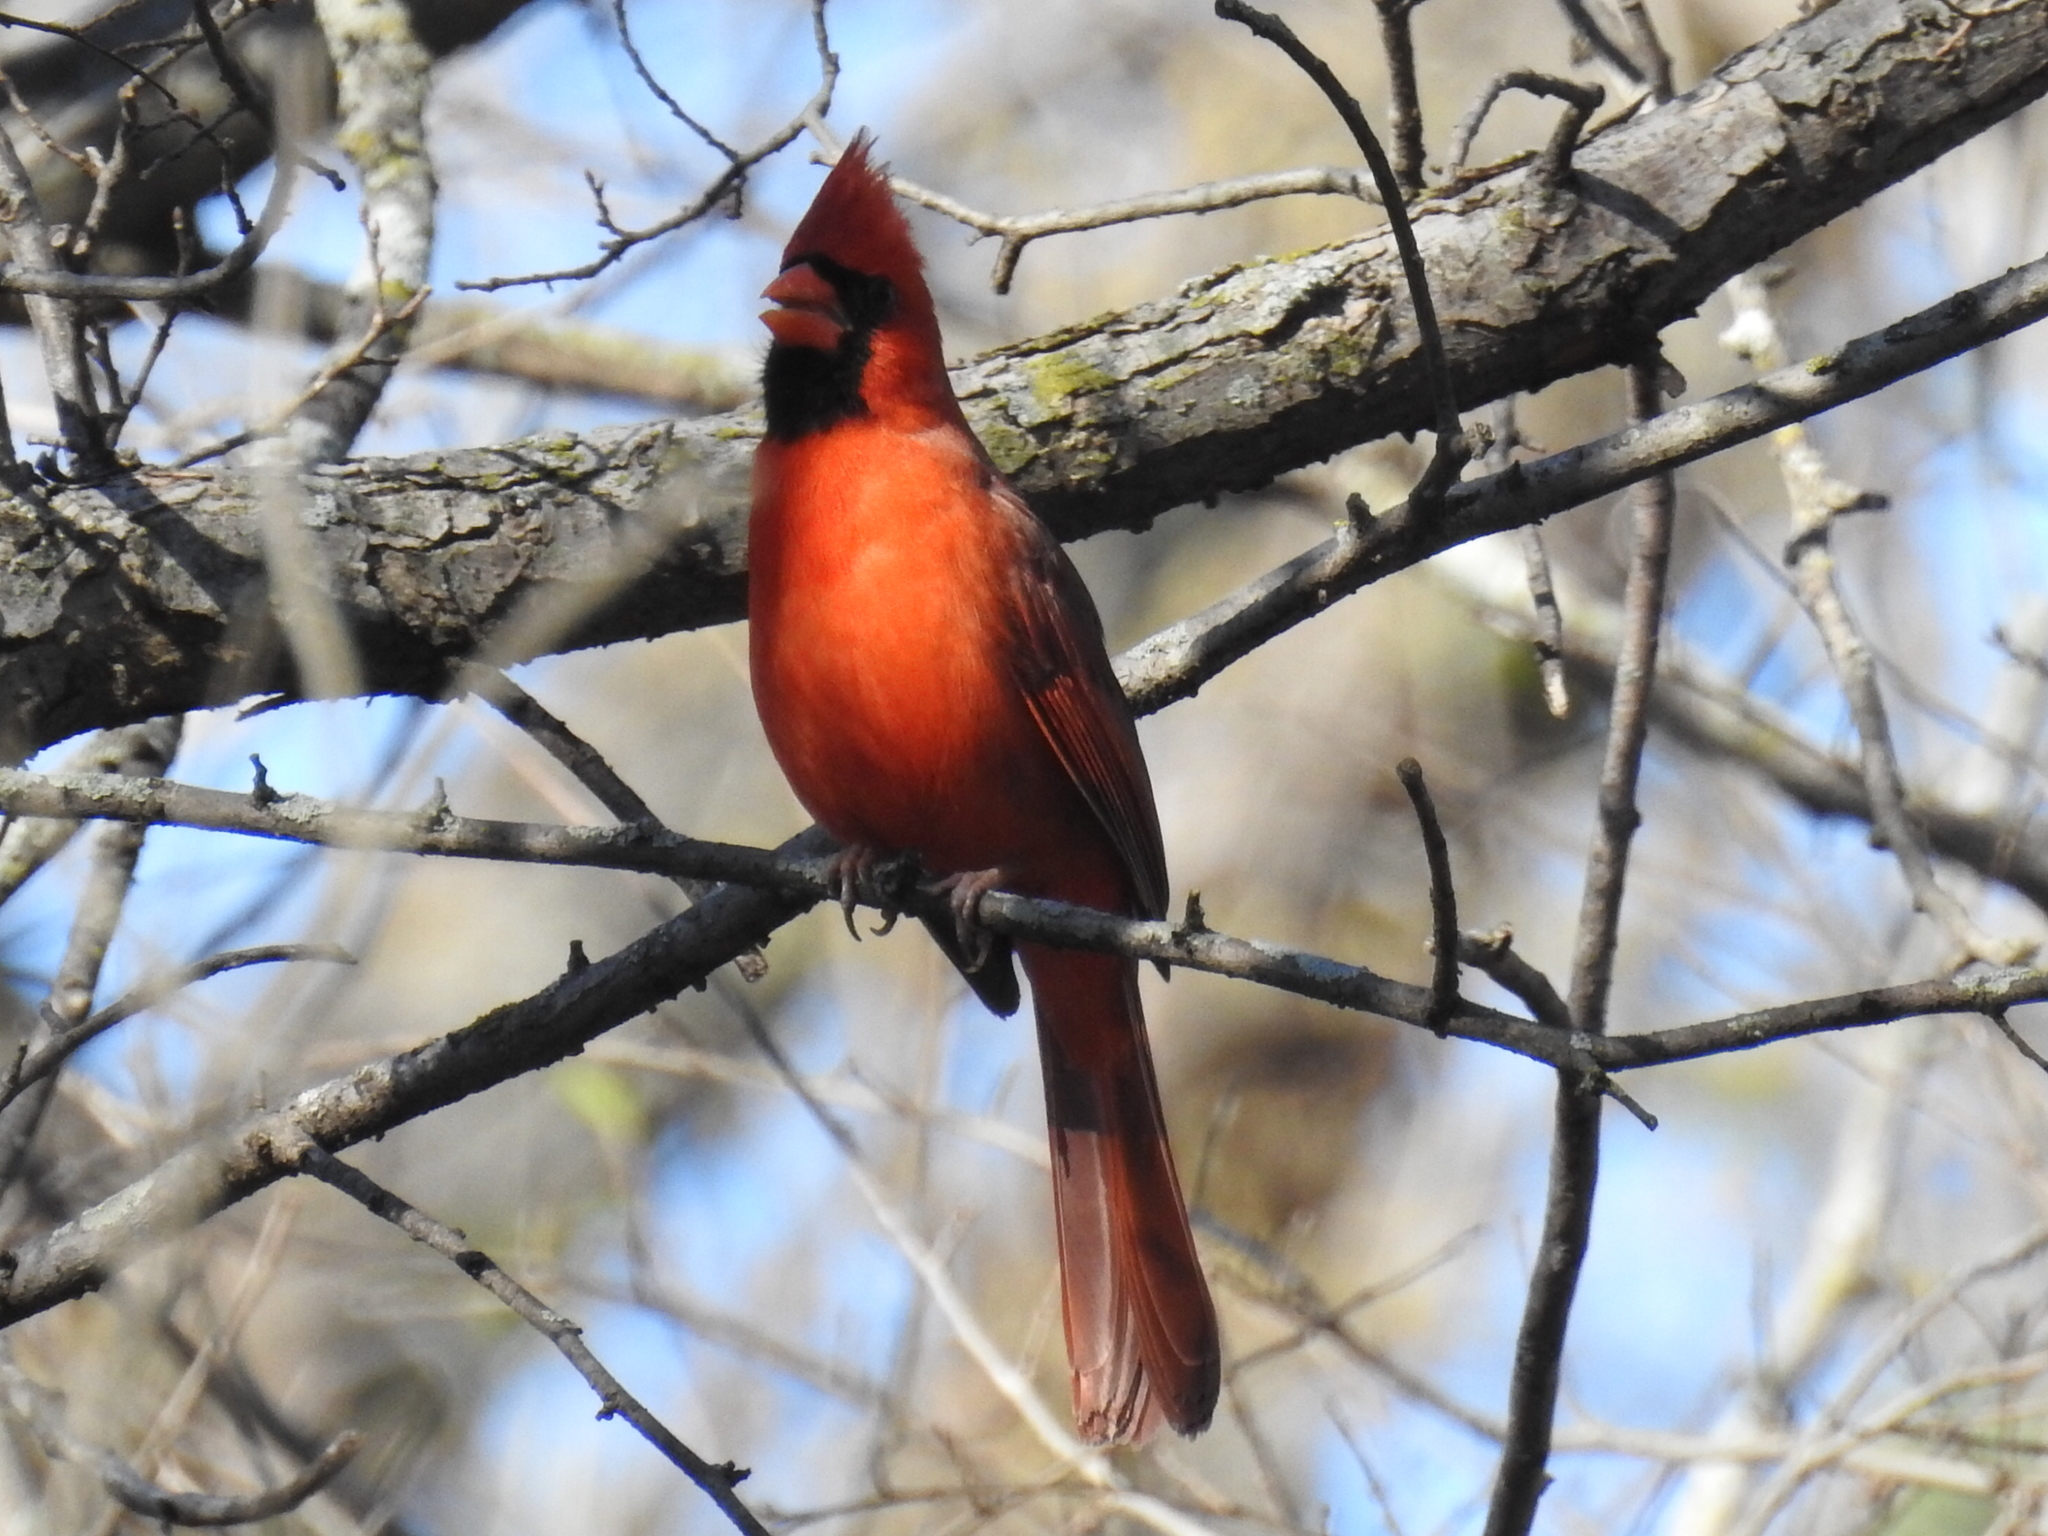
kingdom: Animalia
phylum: Chordata
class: Aves
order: Passeriformes
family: Cardinalidae
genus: Cardinalis
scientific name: Cardinalis cardinalis
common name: Northern cardinal
